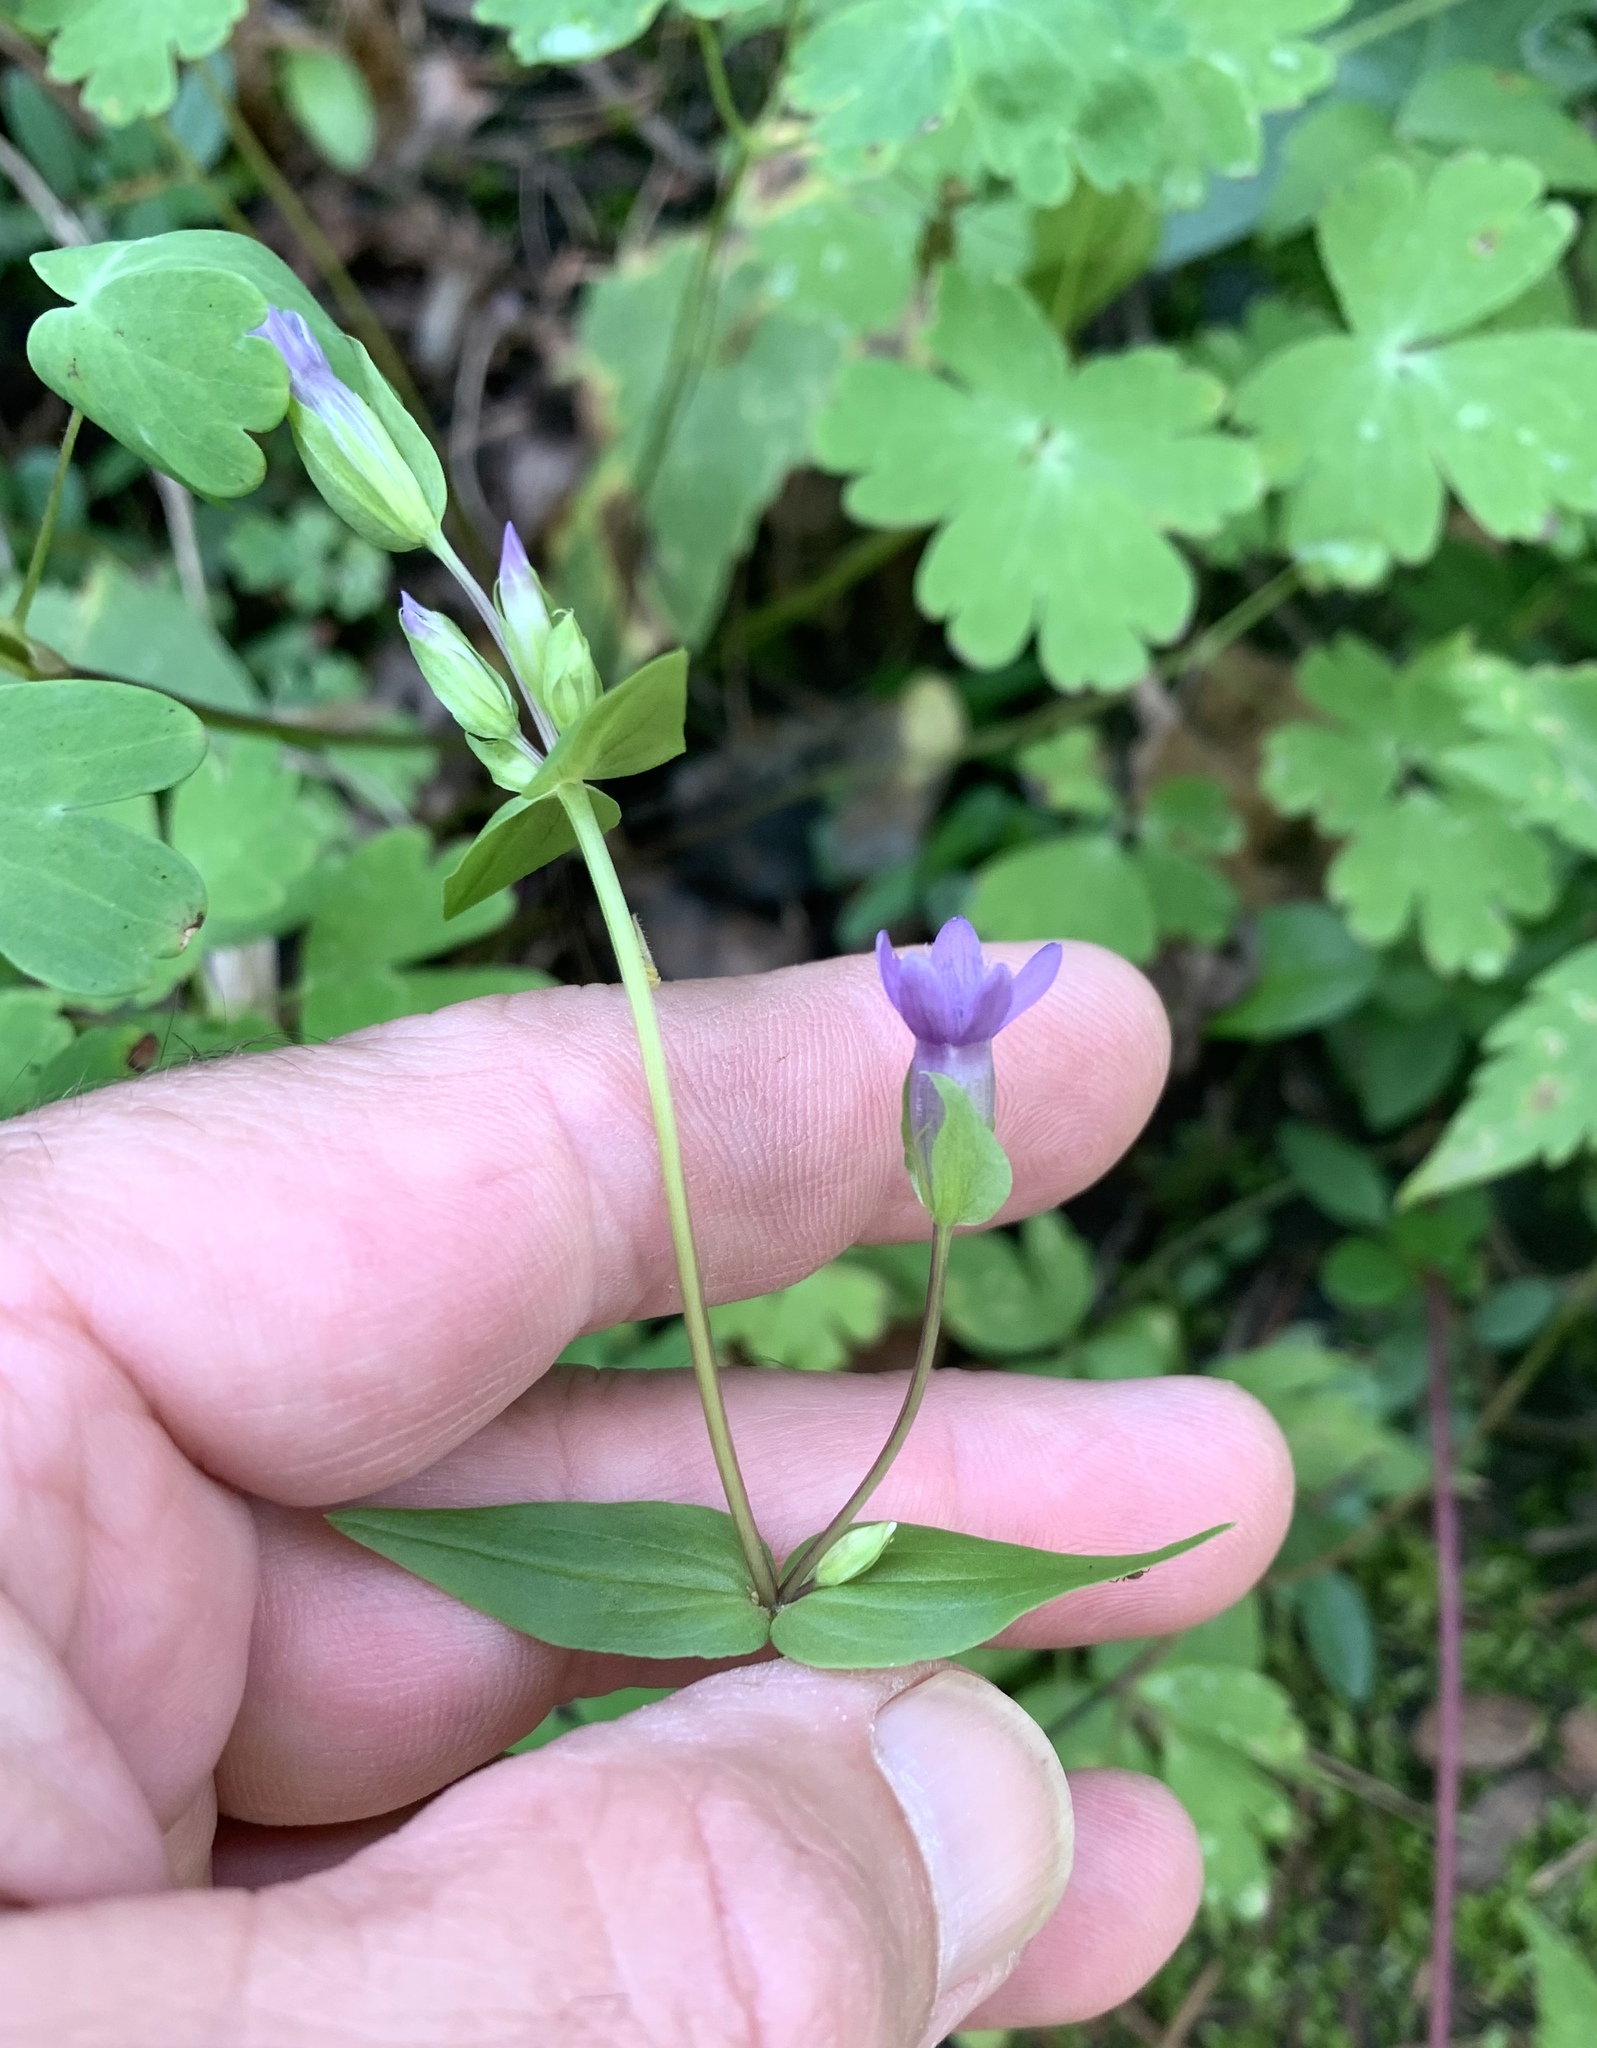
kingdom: Plantae
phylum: Tracheophyta
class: Magnoliopsida
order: Gentianales
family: Gentianaceae
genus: Gentianella
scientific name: Gentianella amarella
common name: Autumn gentian
